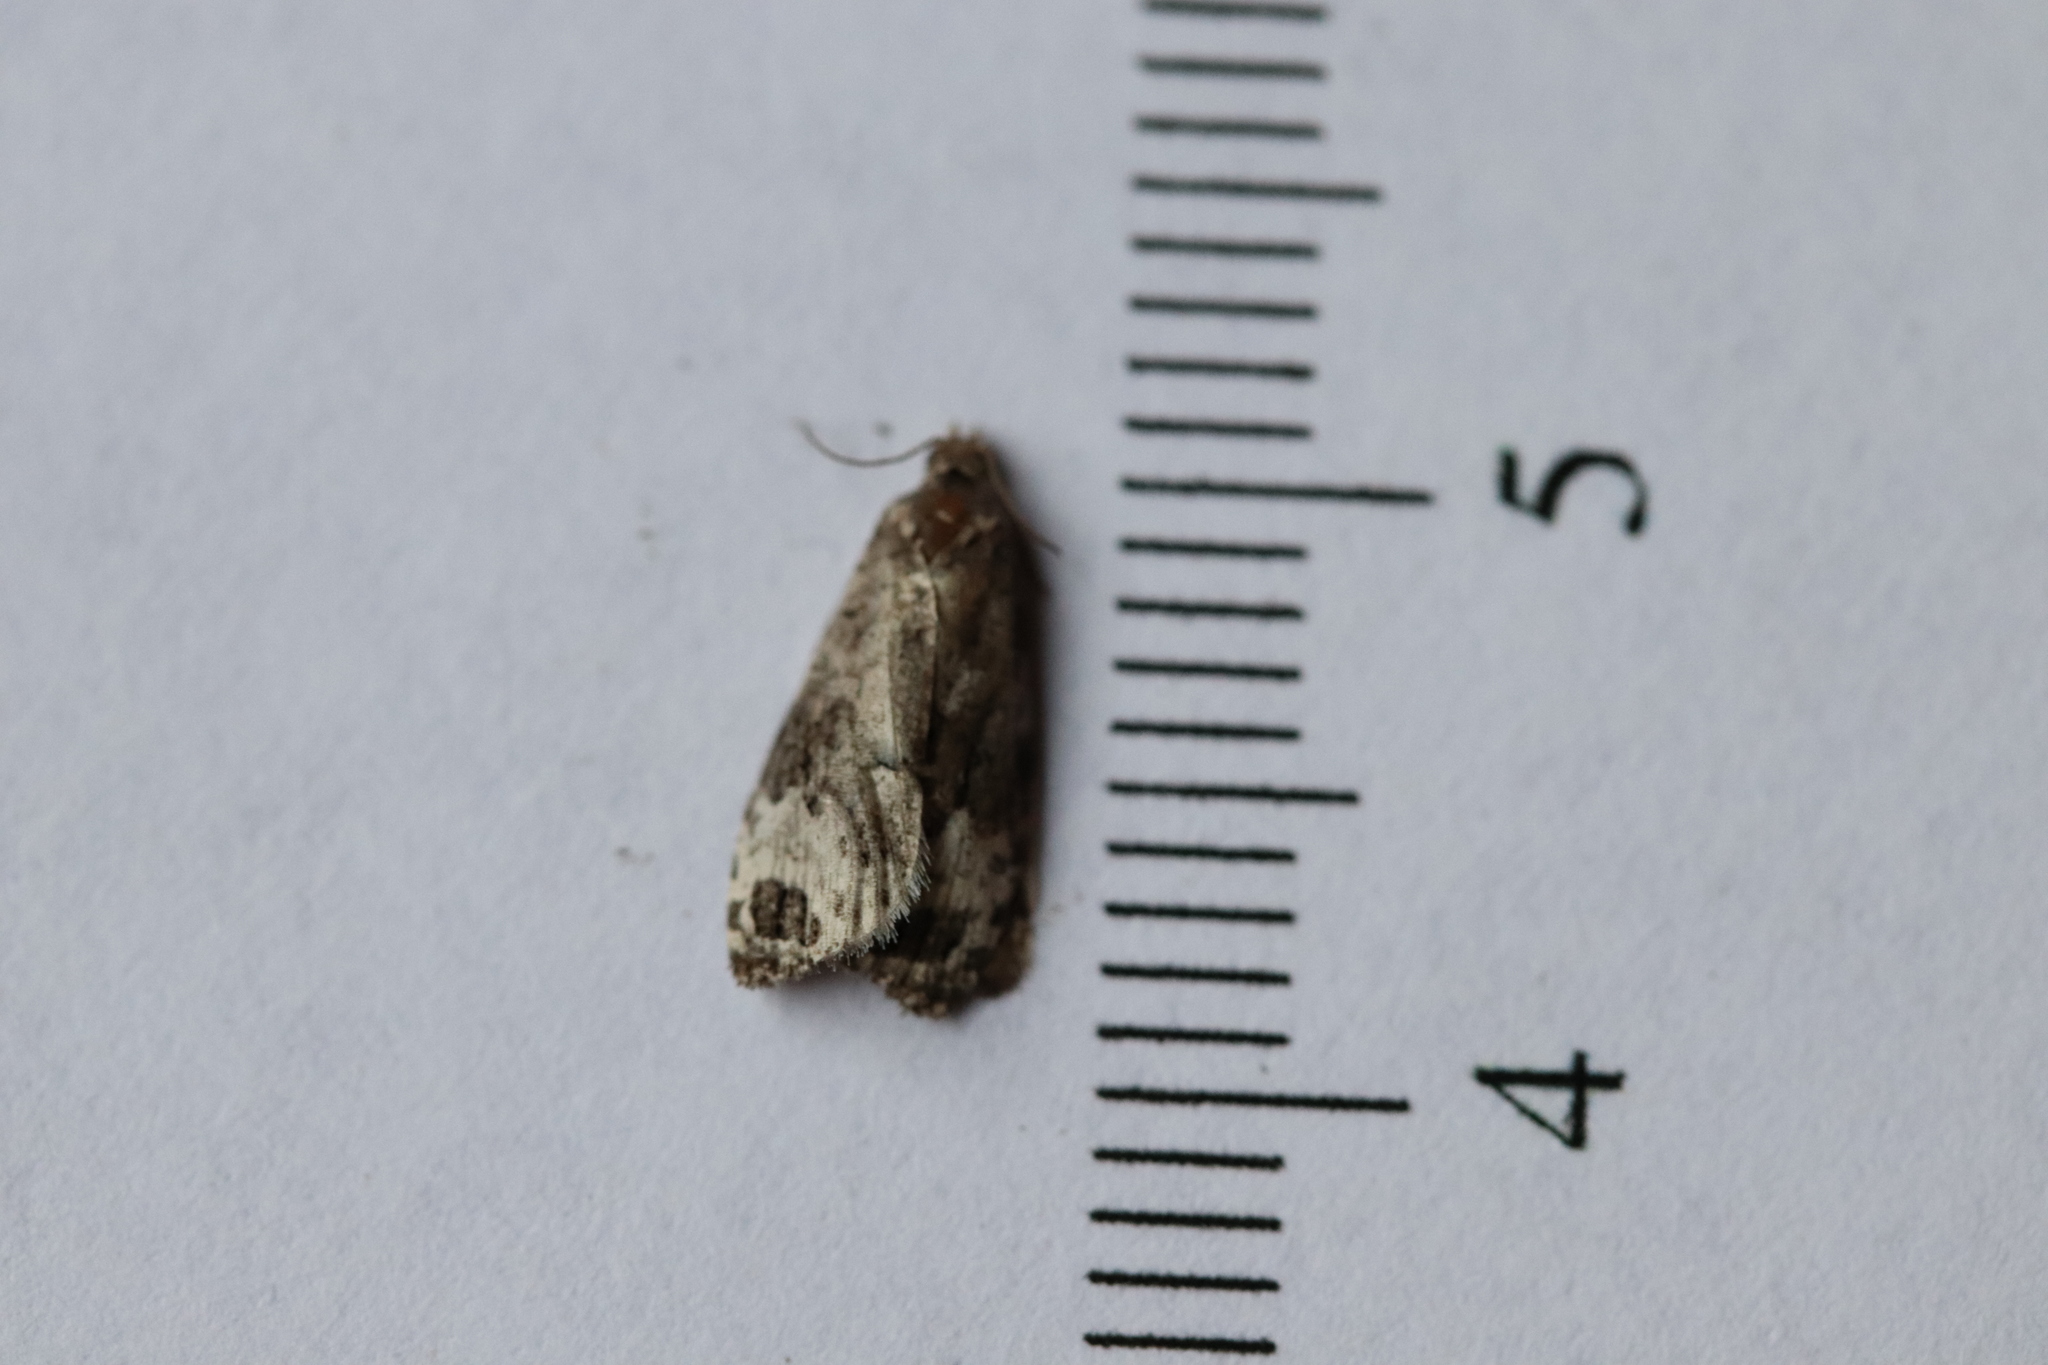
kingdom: Animalia
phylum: Arthropoda
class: Insecta
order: Lepidoptera
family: Tortricidae
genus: Apotomis
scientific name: Apotomis capreana
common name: Sallow marble
